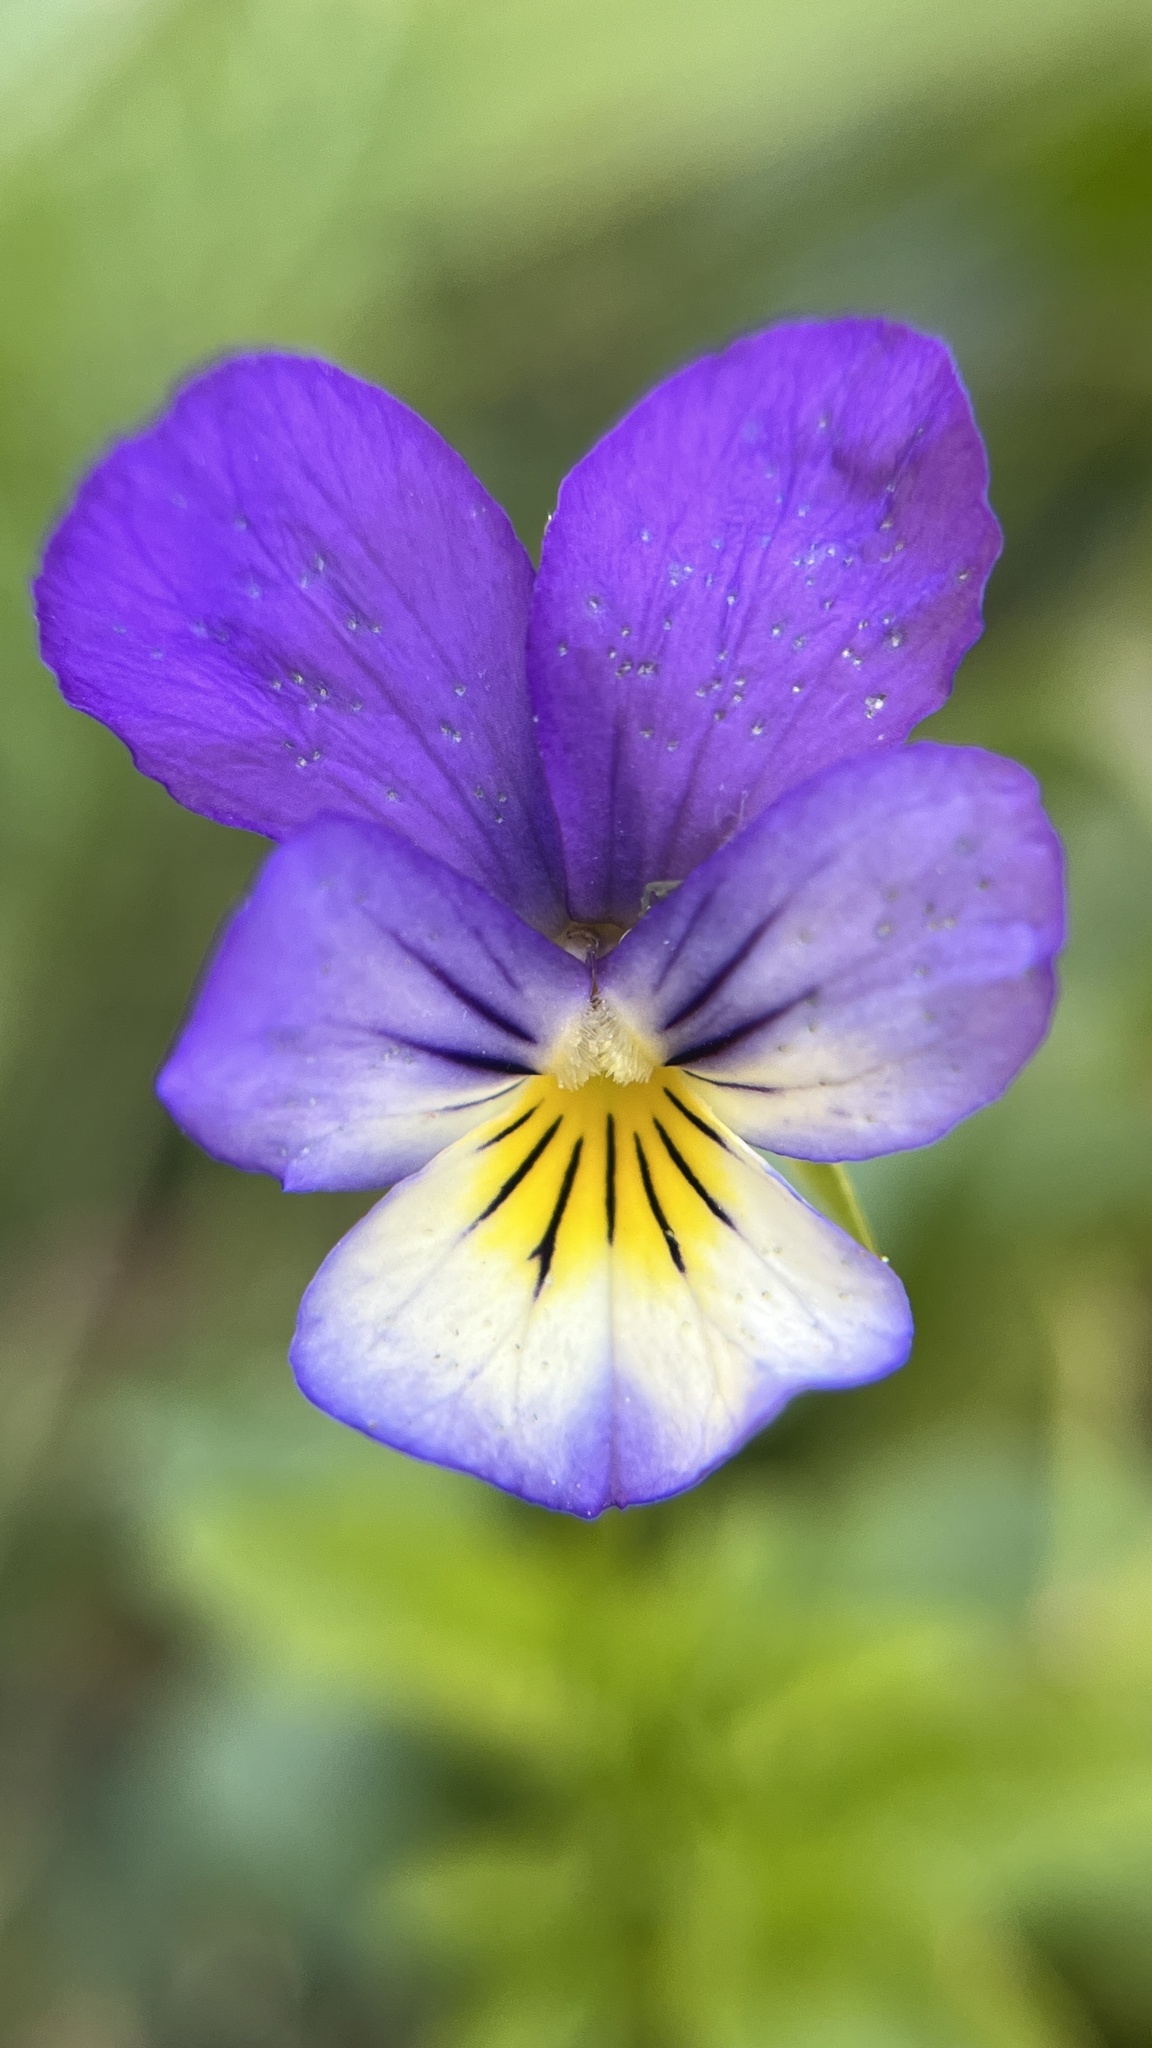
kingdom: Plantae
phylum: Tracheophyta
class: Magnoliopsida
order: Malpighiales
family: Violaceae
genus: Viola
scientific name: Viola tricolor
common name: Pansy
